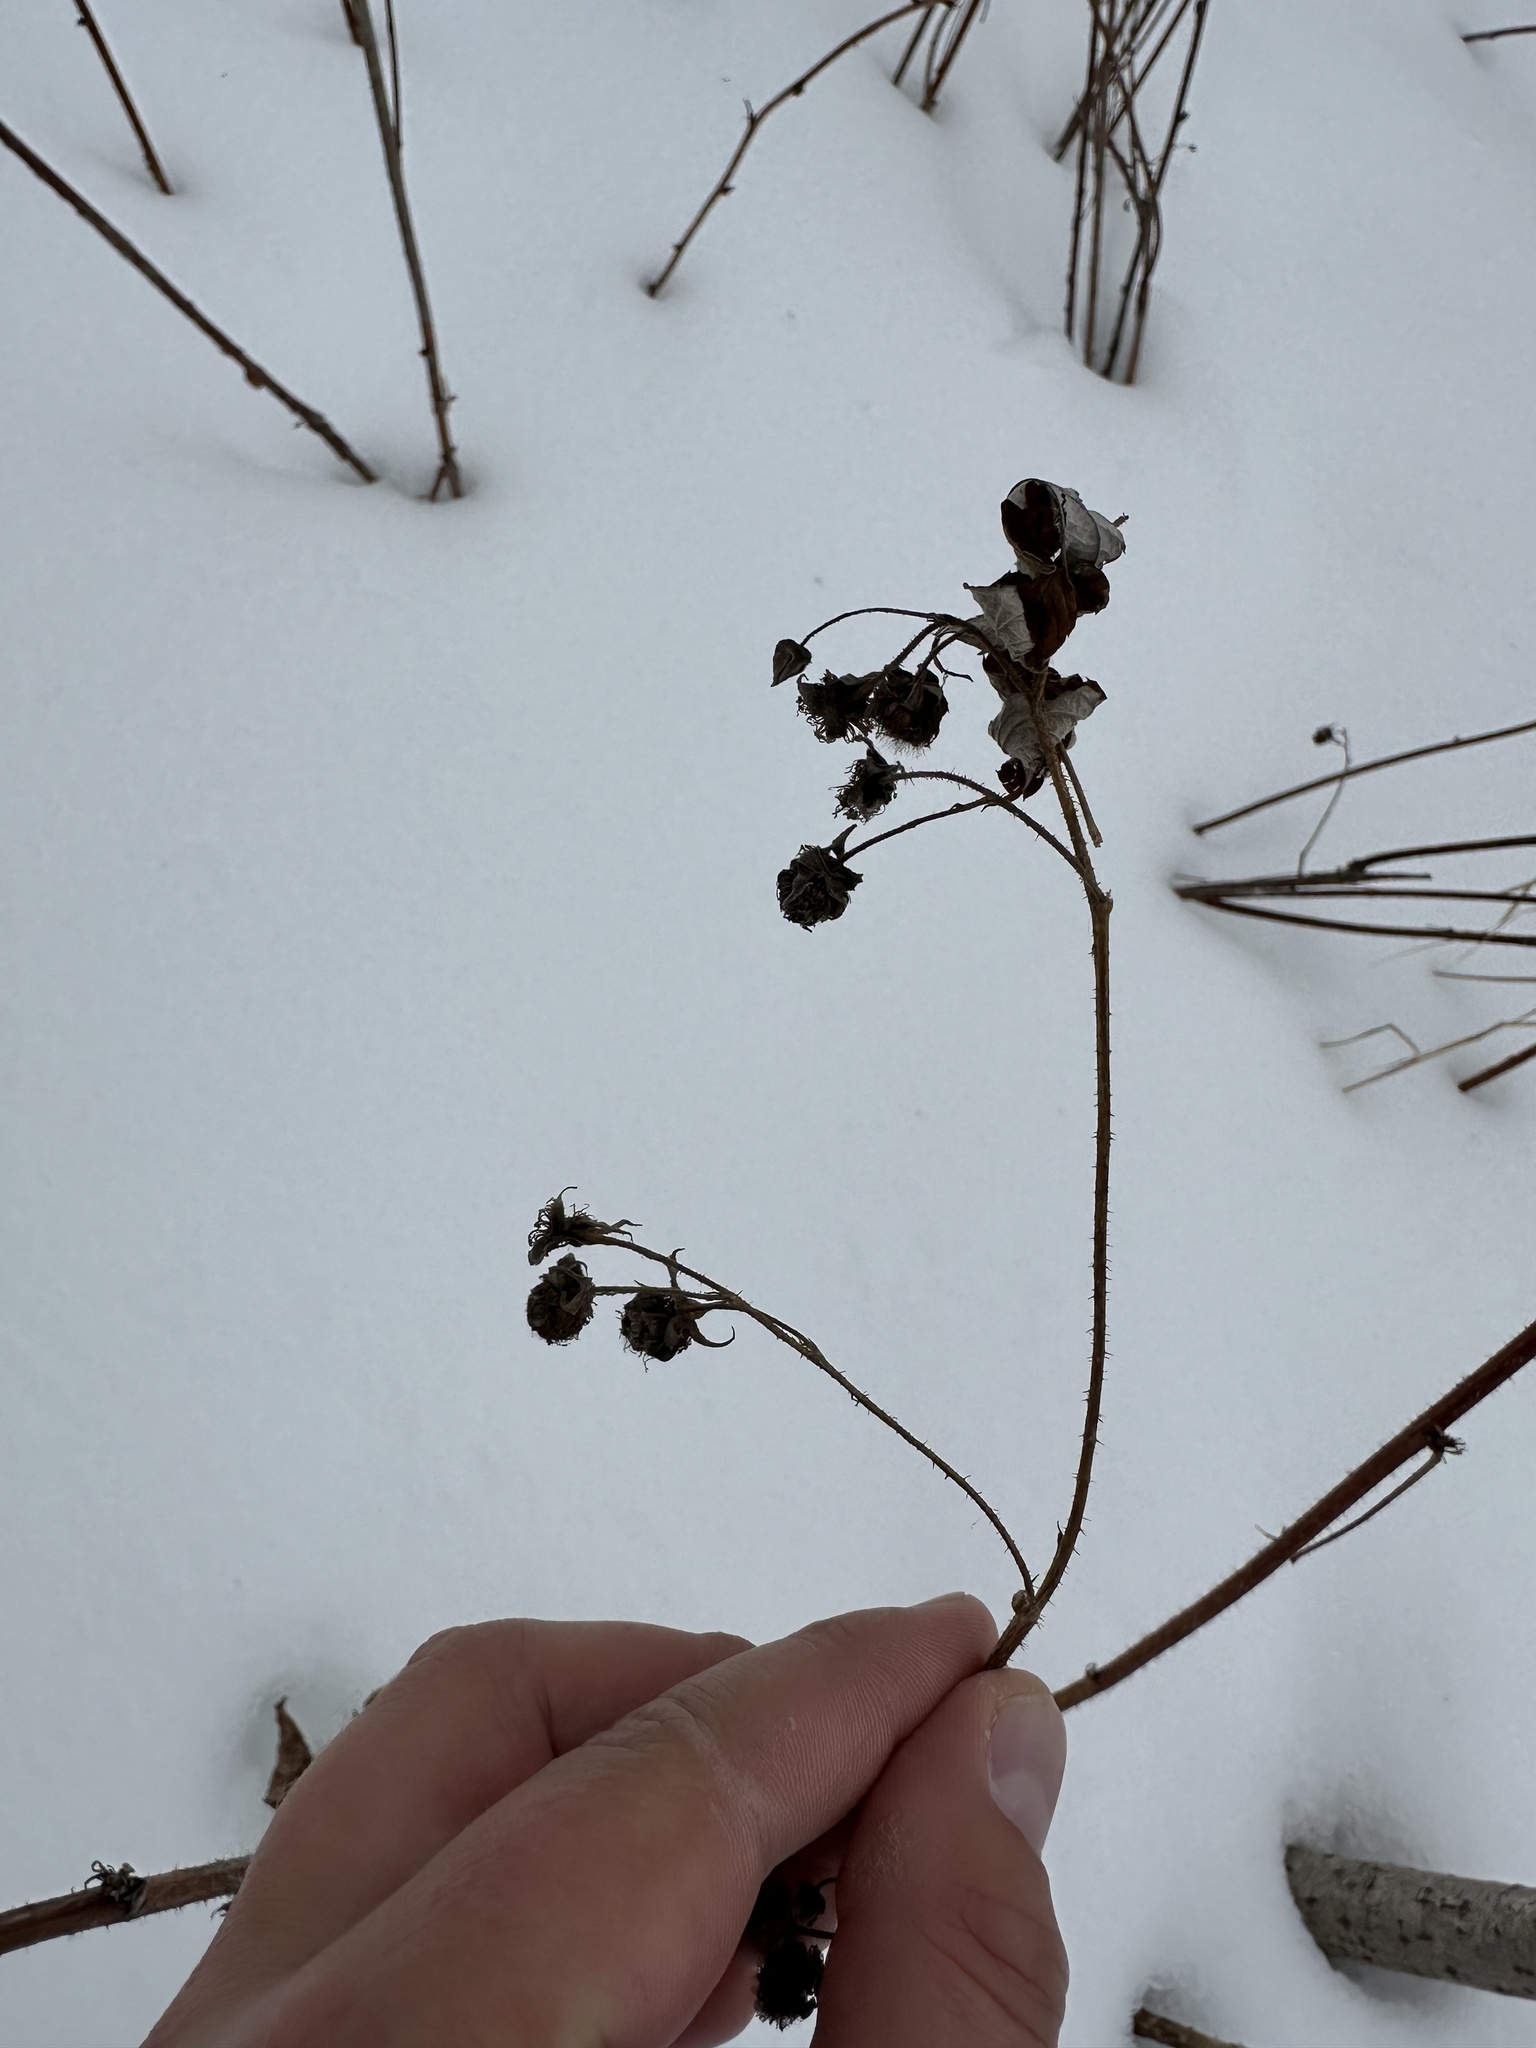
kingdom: Plantae
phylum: Tracheophyta
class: Magnoliopsida
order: Rosales
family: Rosaceae
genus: Rubus
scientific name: Rubus idaeus
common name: Raspberry
